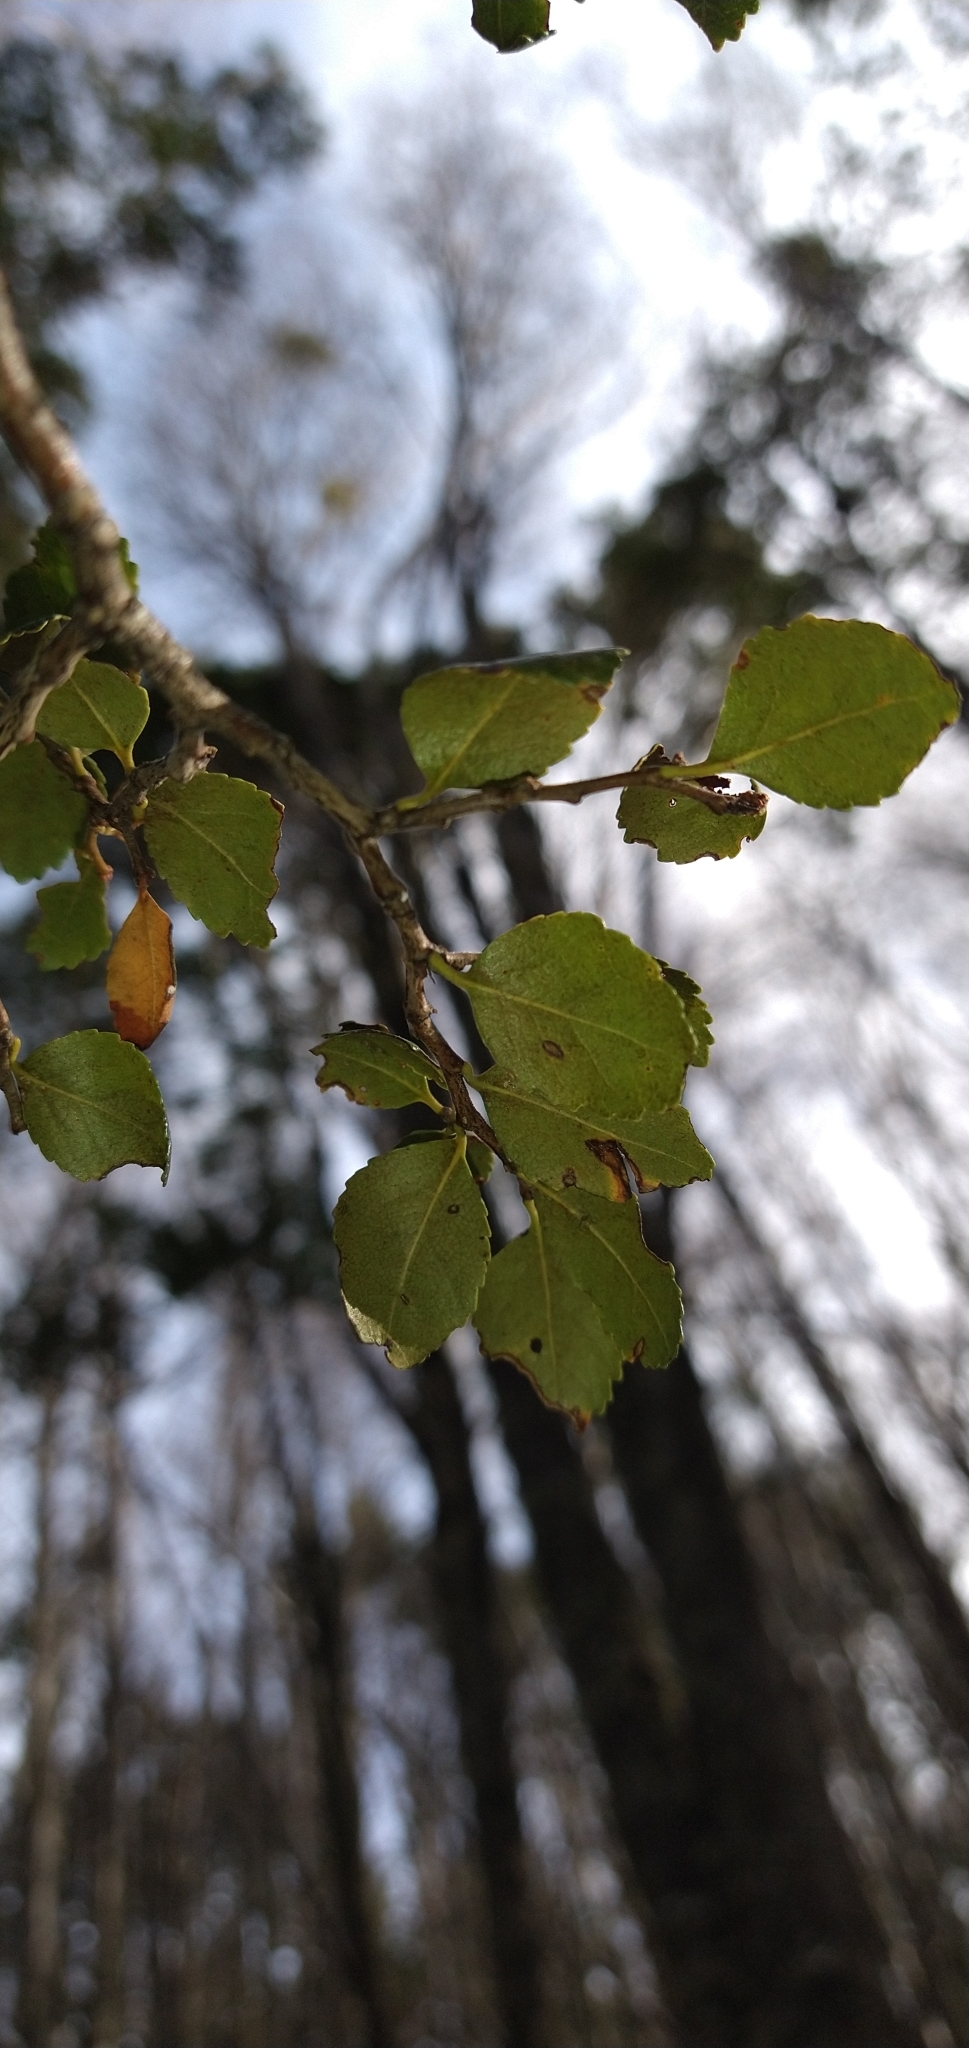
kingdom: Plantae
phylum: Tracheophyta
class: Magnoliopsida
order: Fagales
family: Nothofagaceae
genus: Nothofagus
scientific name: Nothofagus betuloides
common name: Magellan's beech
